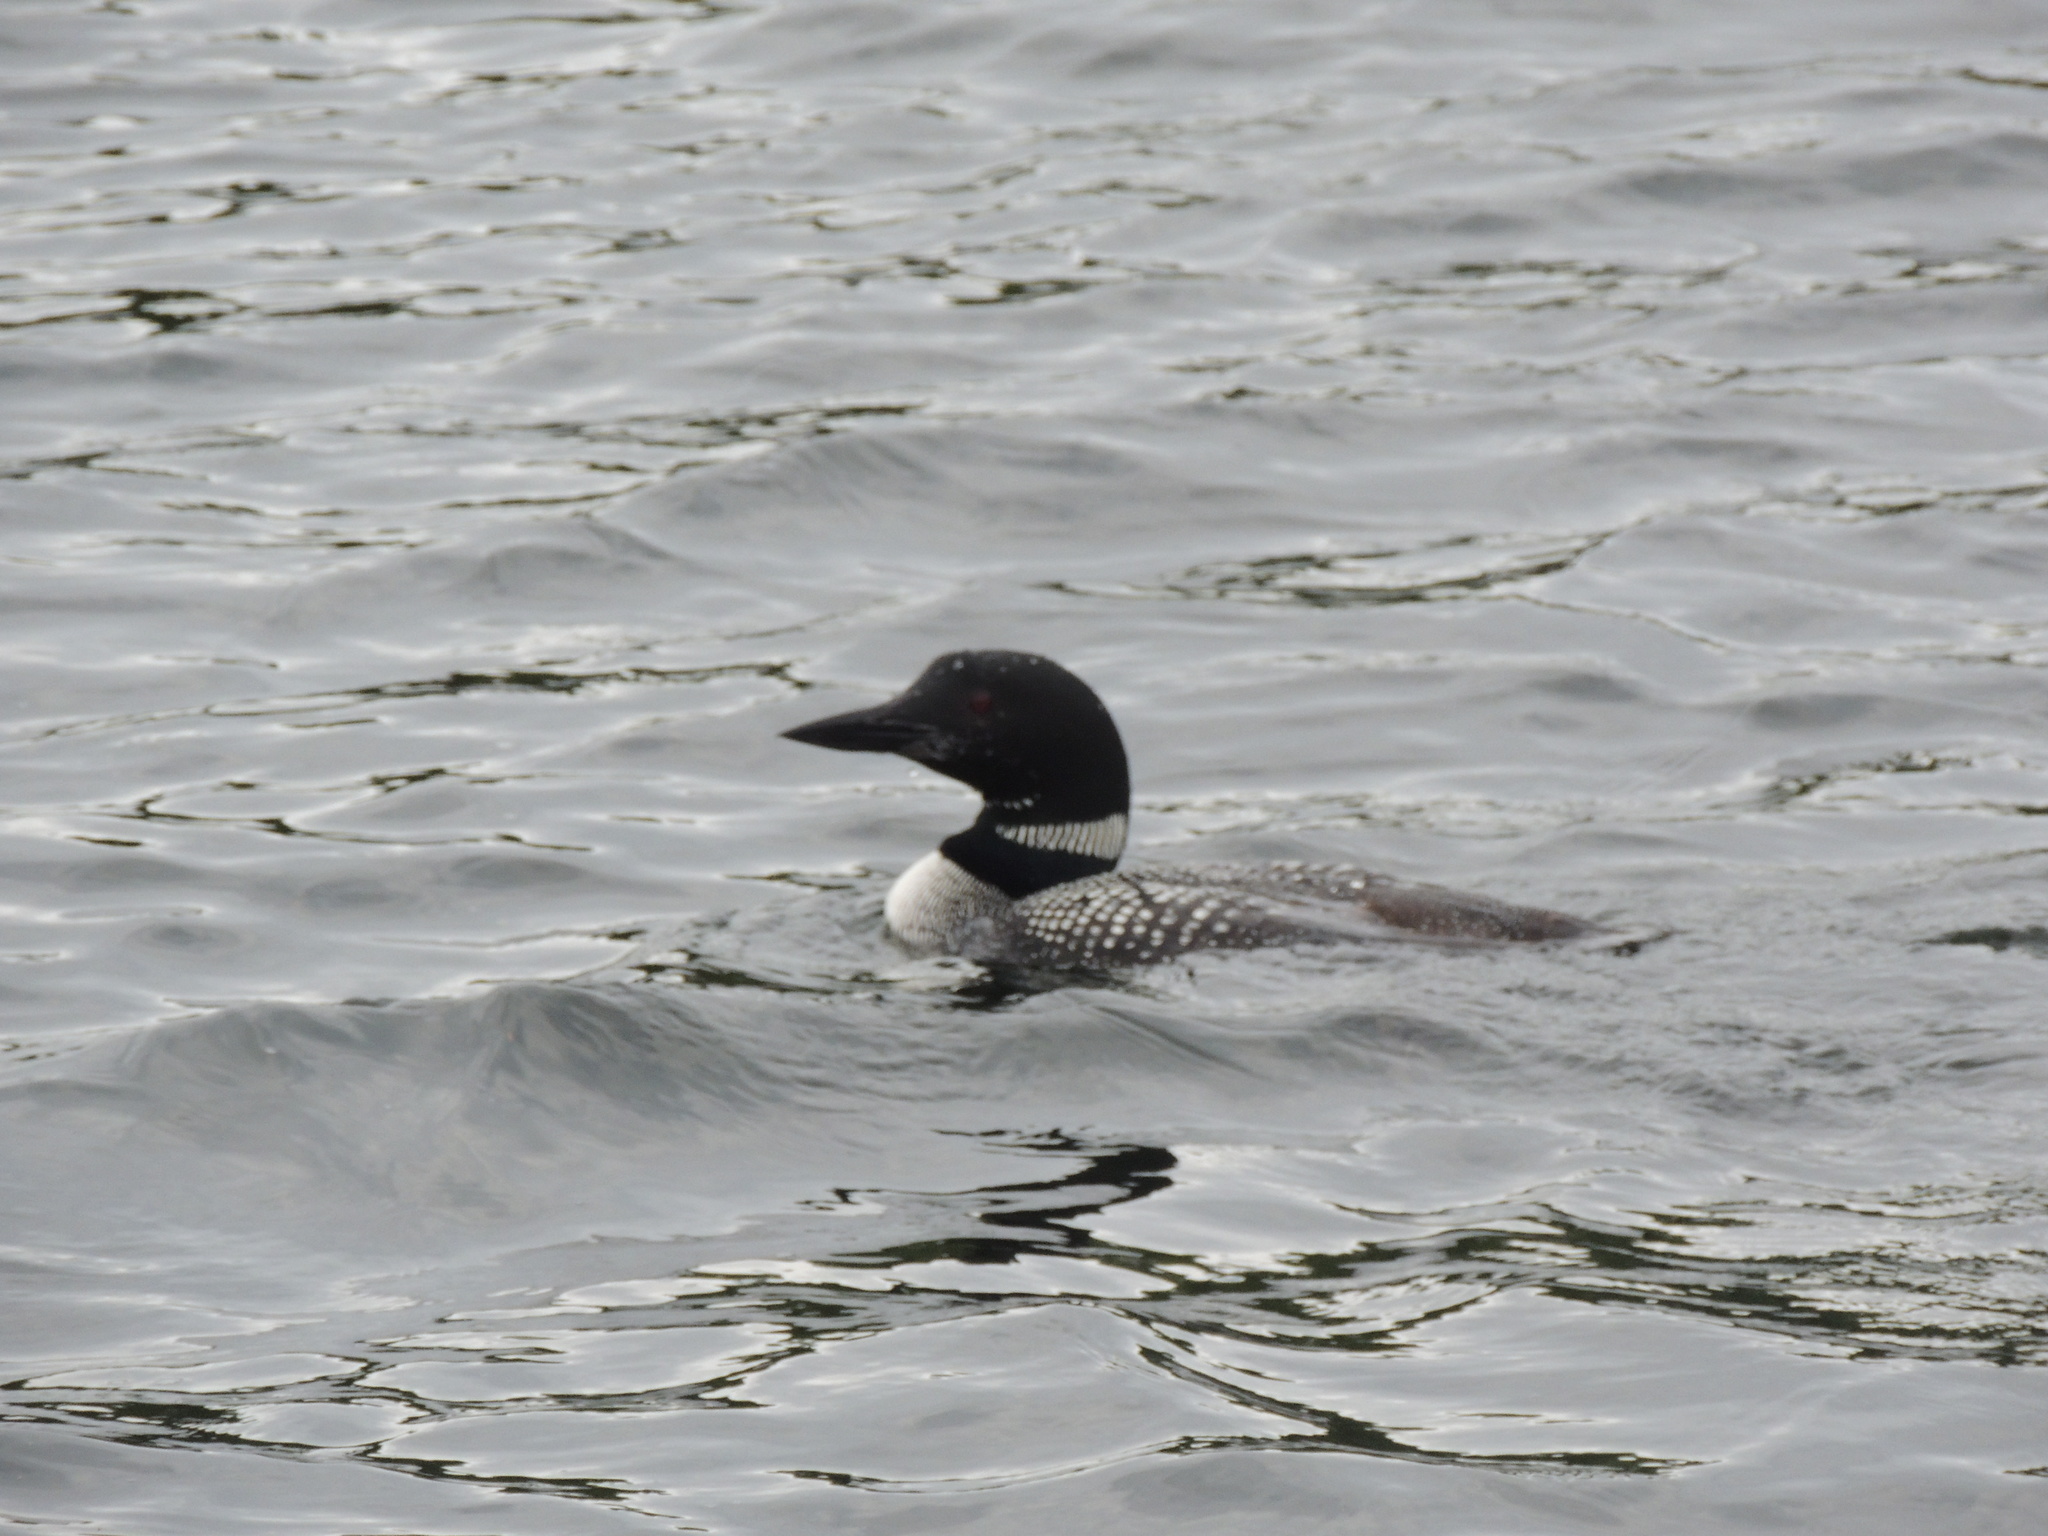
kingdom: Animalia
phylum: Chordata
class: Aves
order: Gaviiformes
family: Gaviidae
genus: Gavia
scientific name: Gavia immer
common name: Common loon
